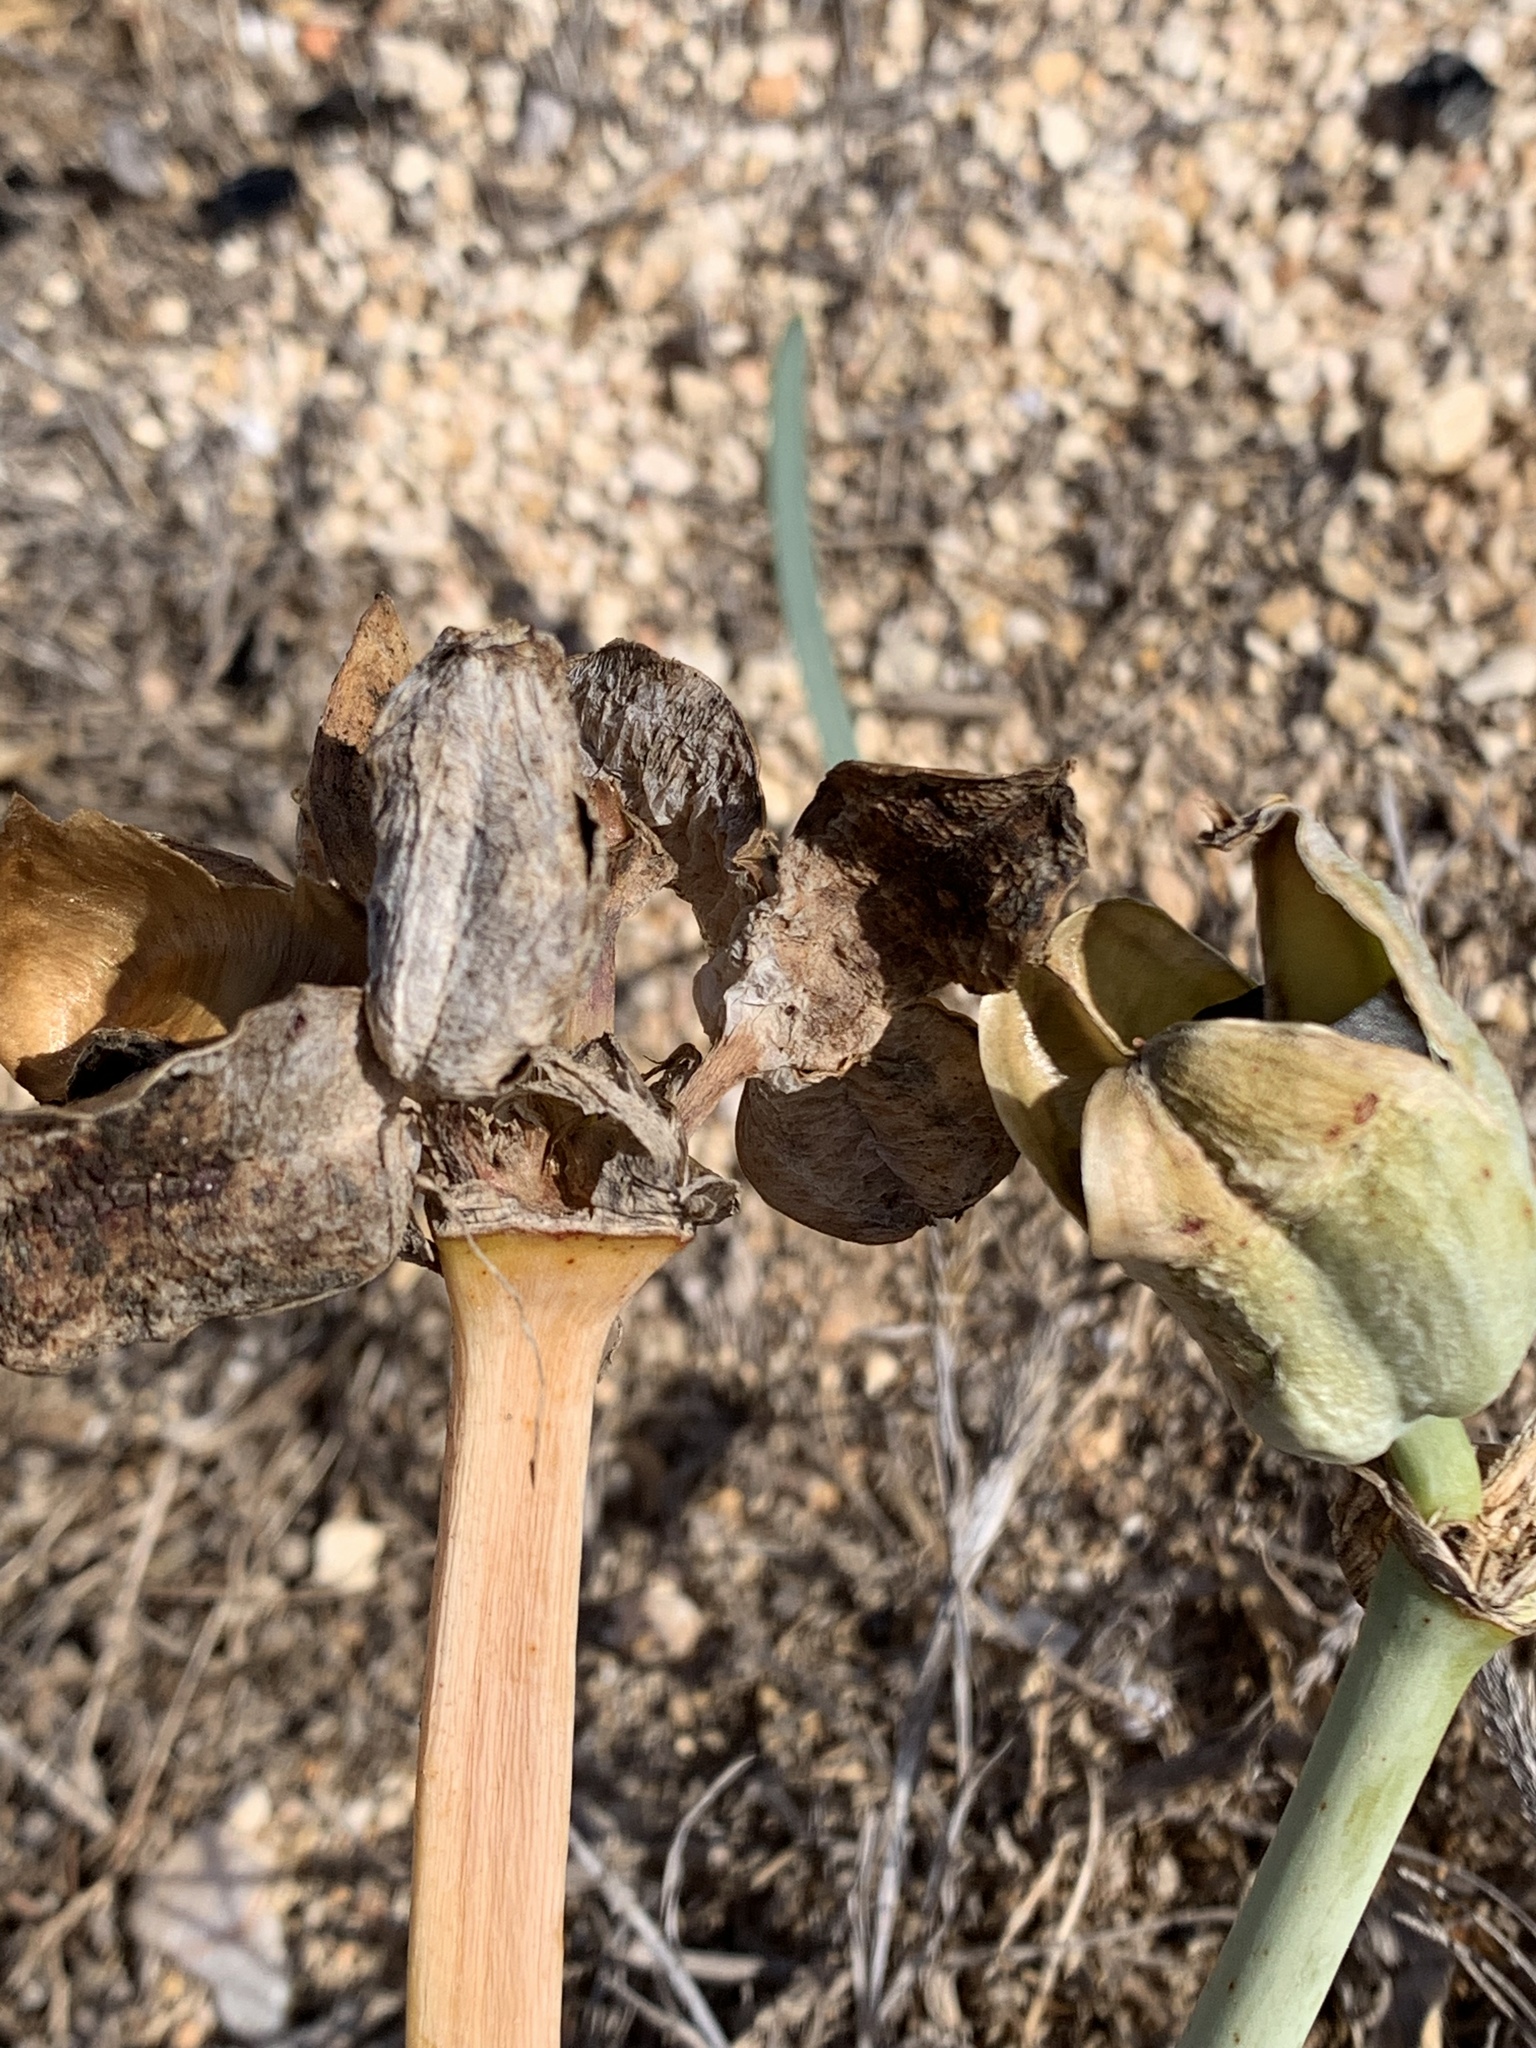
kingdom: Plantae
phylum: Tracheophyta
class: Liliopsida
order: Asparagales
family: Amaryllidaceae
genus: Pancratium
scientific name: Pancratium maritimum
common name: Sea-daffodil
